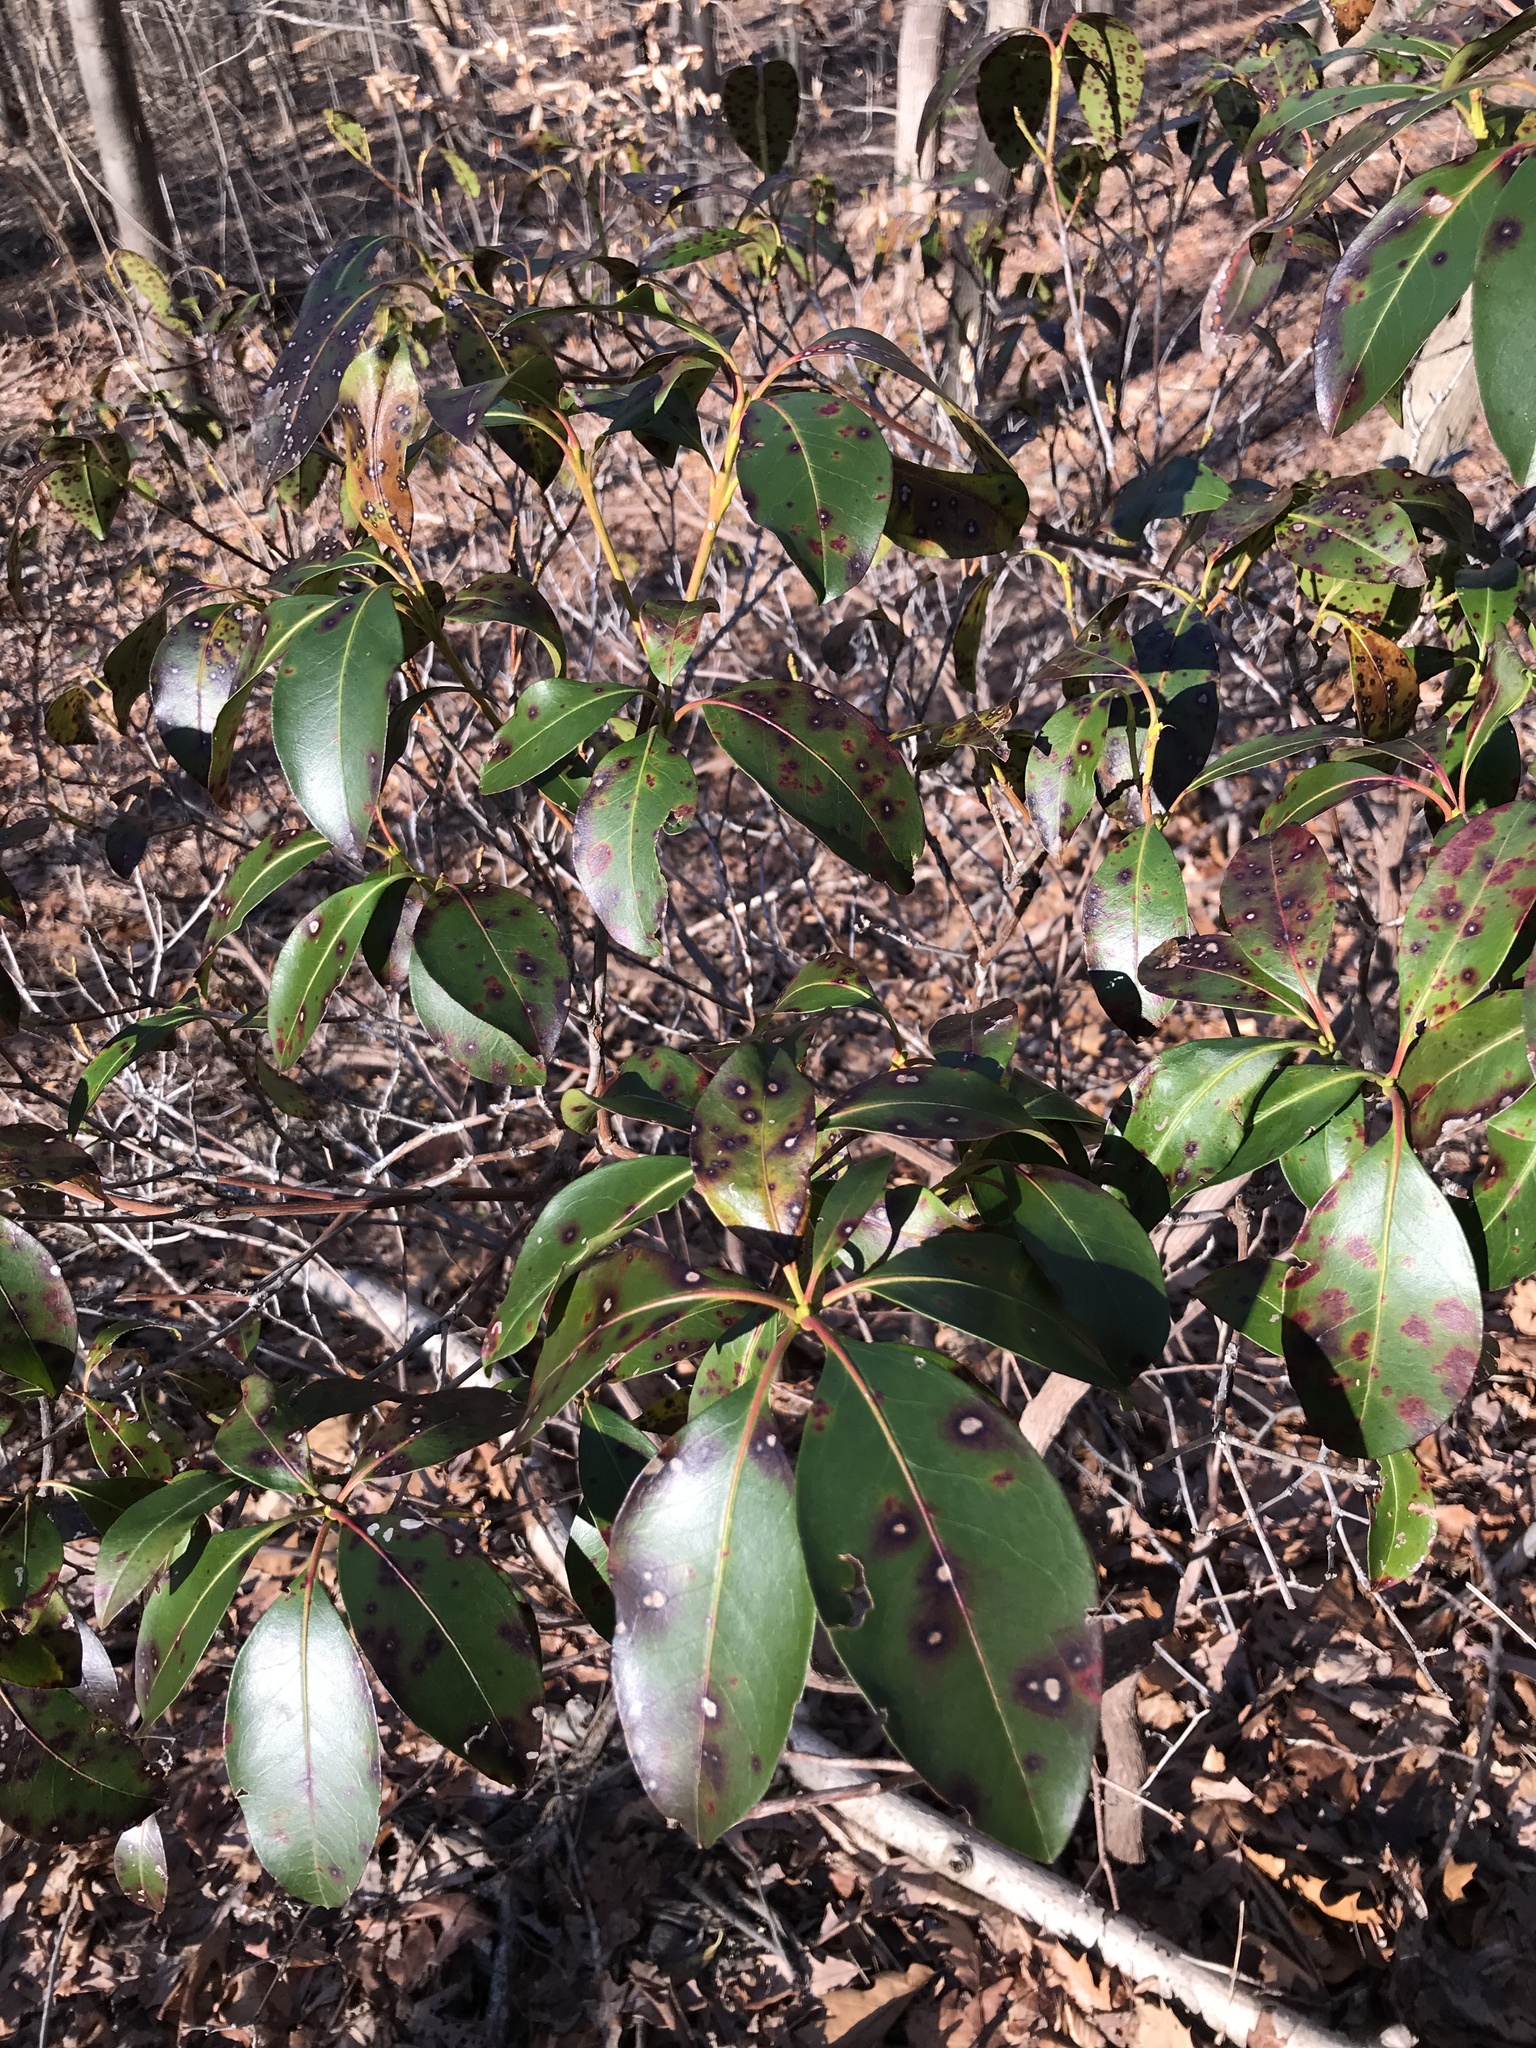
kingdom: Plantae
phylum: Tracheophyta
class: Magnoliopsida
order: Ericales
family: Ericaceae
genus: Kalmia
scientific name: Kalmia latifolia
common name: Mountain-laurel
